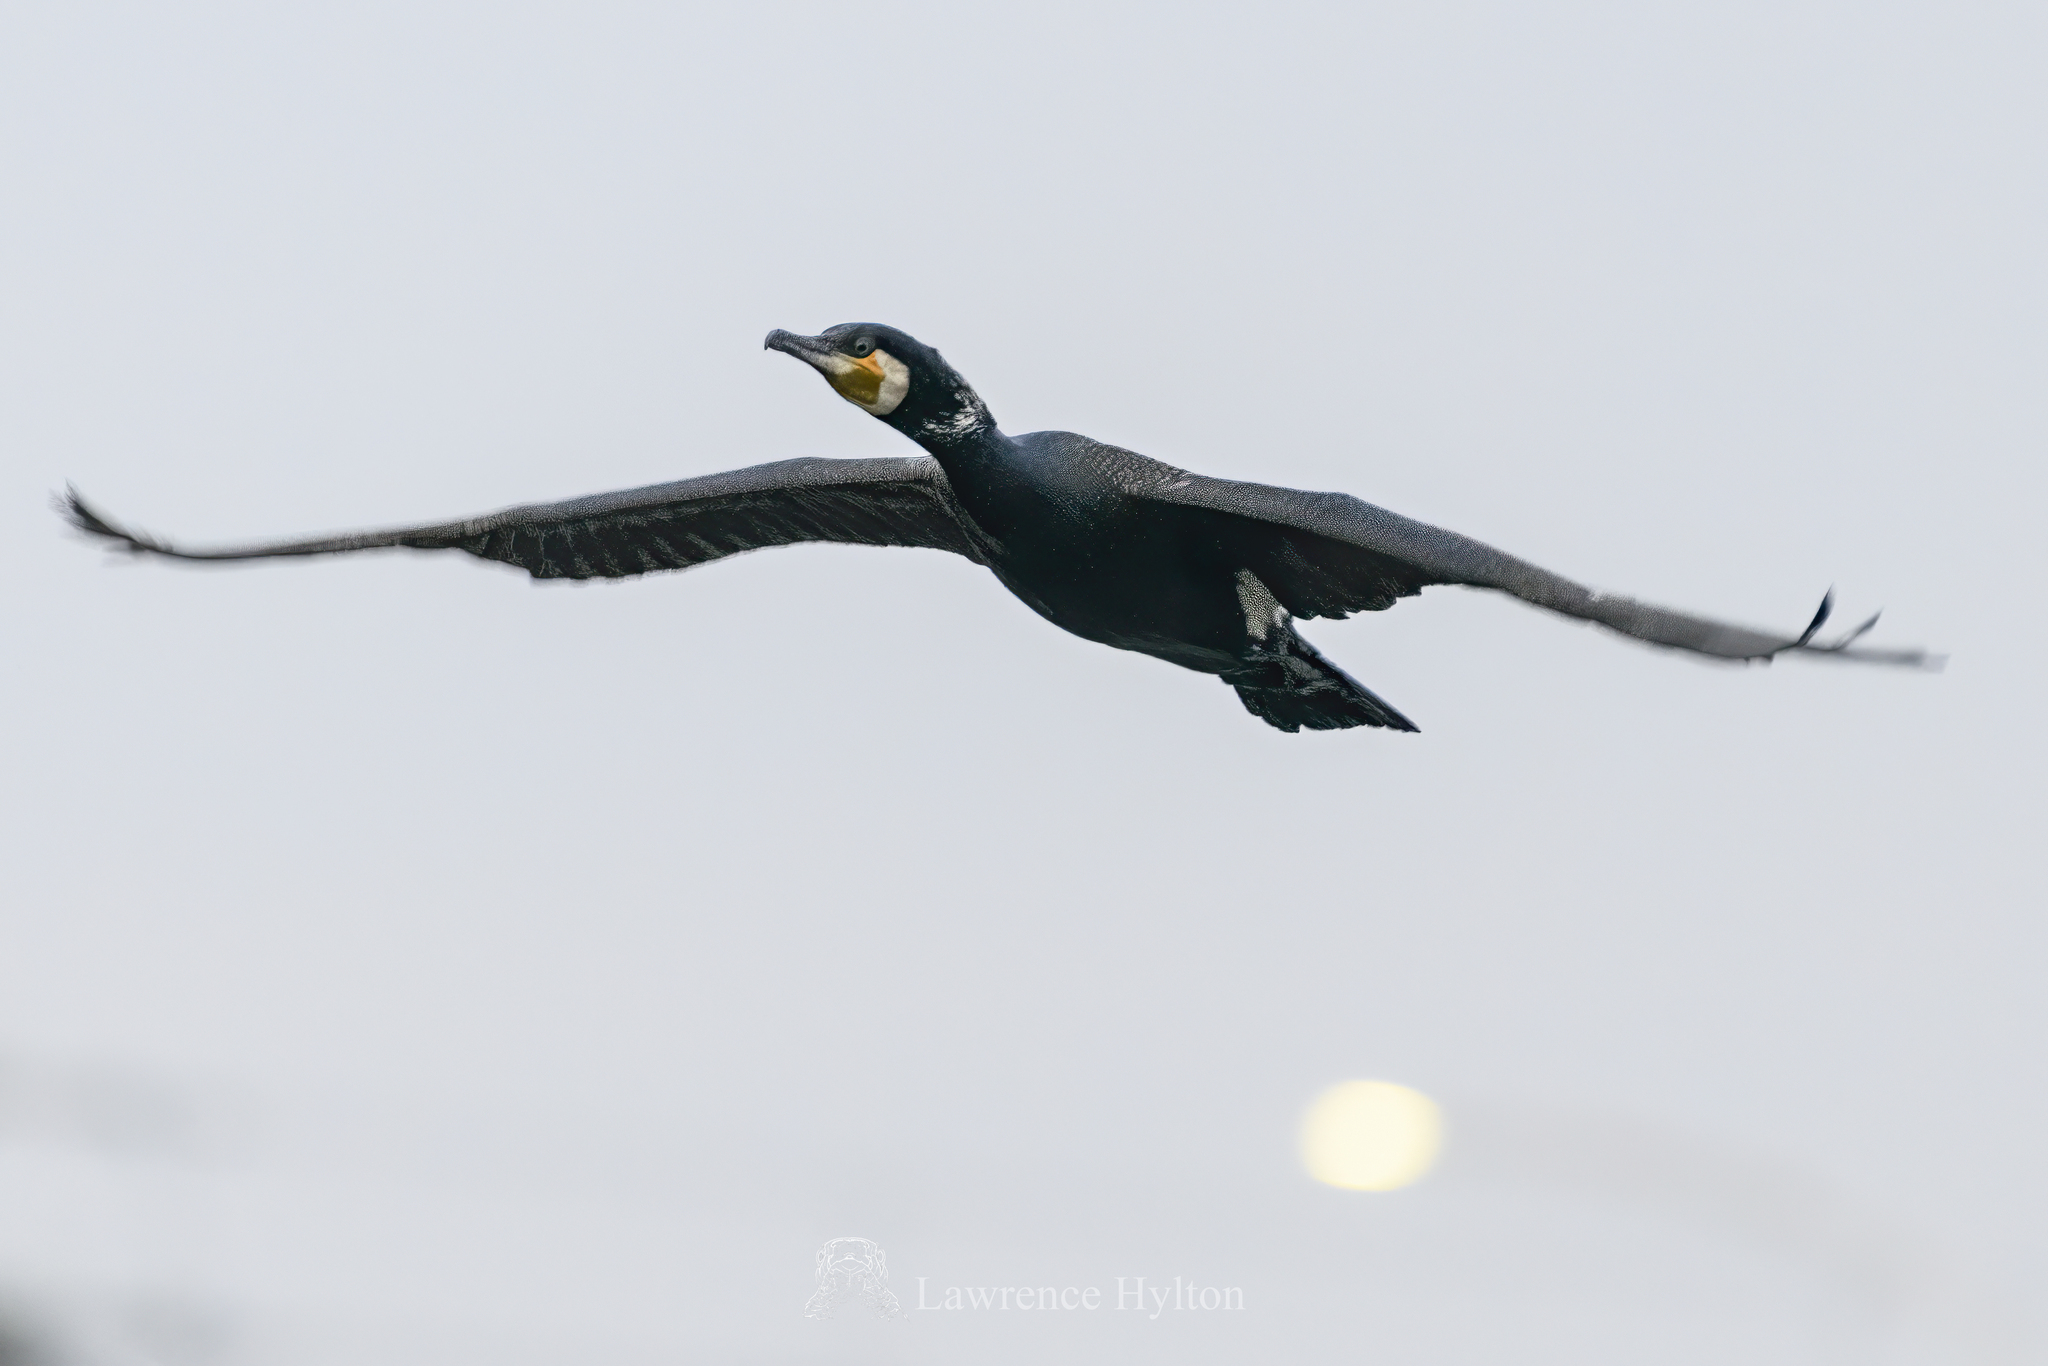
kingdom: Animalia
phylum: Chordata
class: Aves
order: Suliformes
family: Phalacrocoracidae
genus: Phalacrocorax
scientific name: Phalacrocorax carbo
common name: Great cormorant
